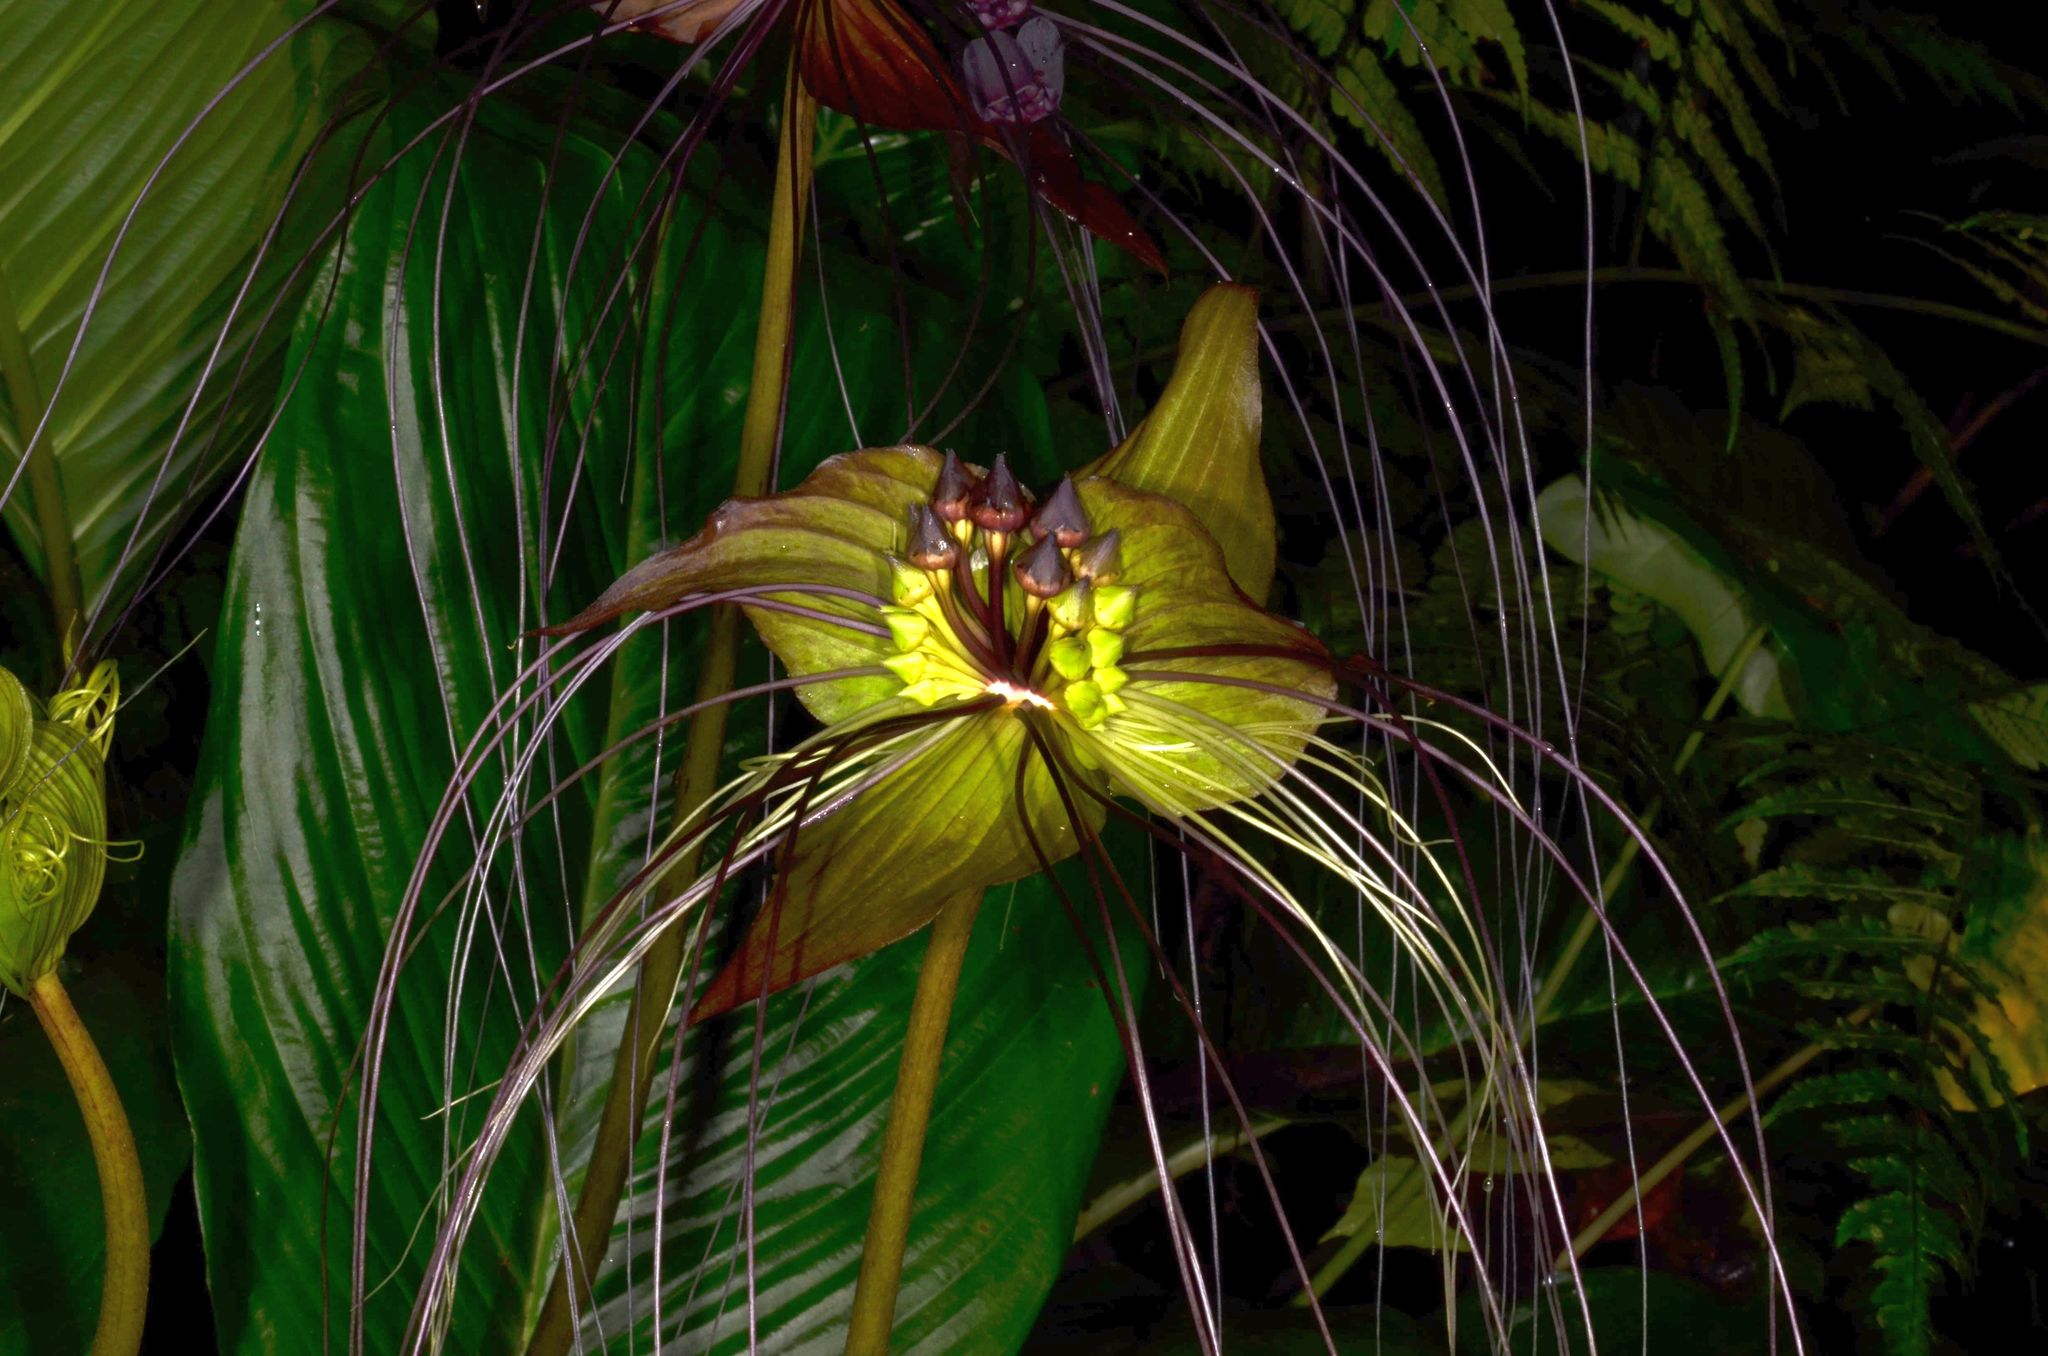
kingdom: Plantae
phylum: Tracheophyta
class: Liliopsida
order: Dioscoreales
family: Dioscoreaceae
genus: Tacca
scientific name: Tacca chantrieri
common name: Cat's-whiskers
